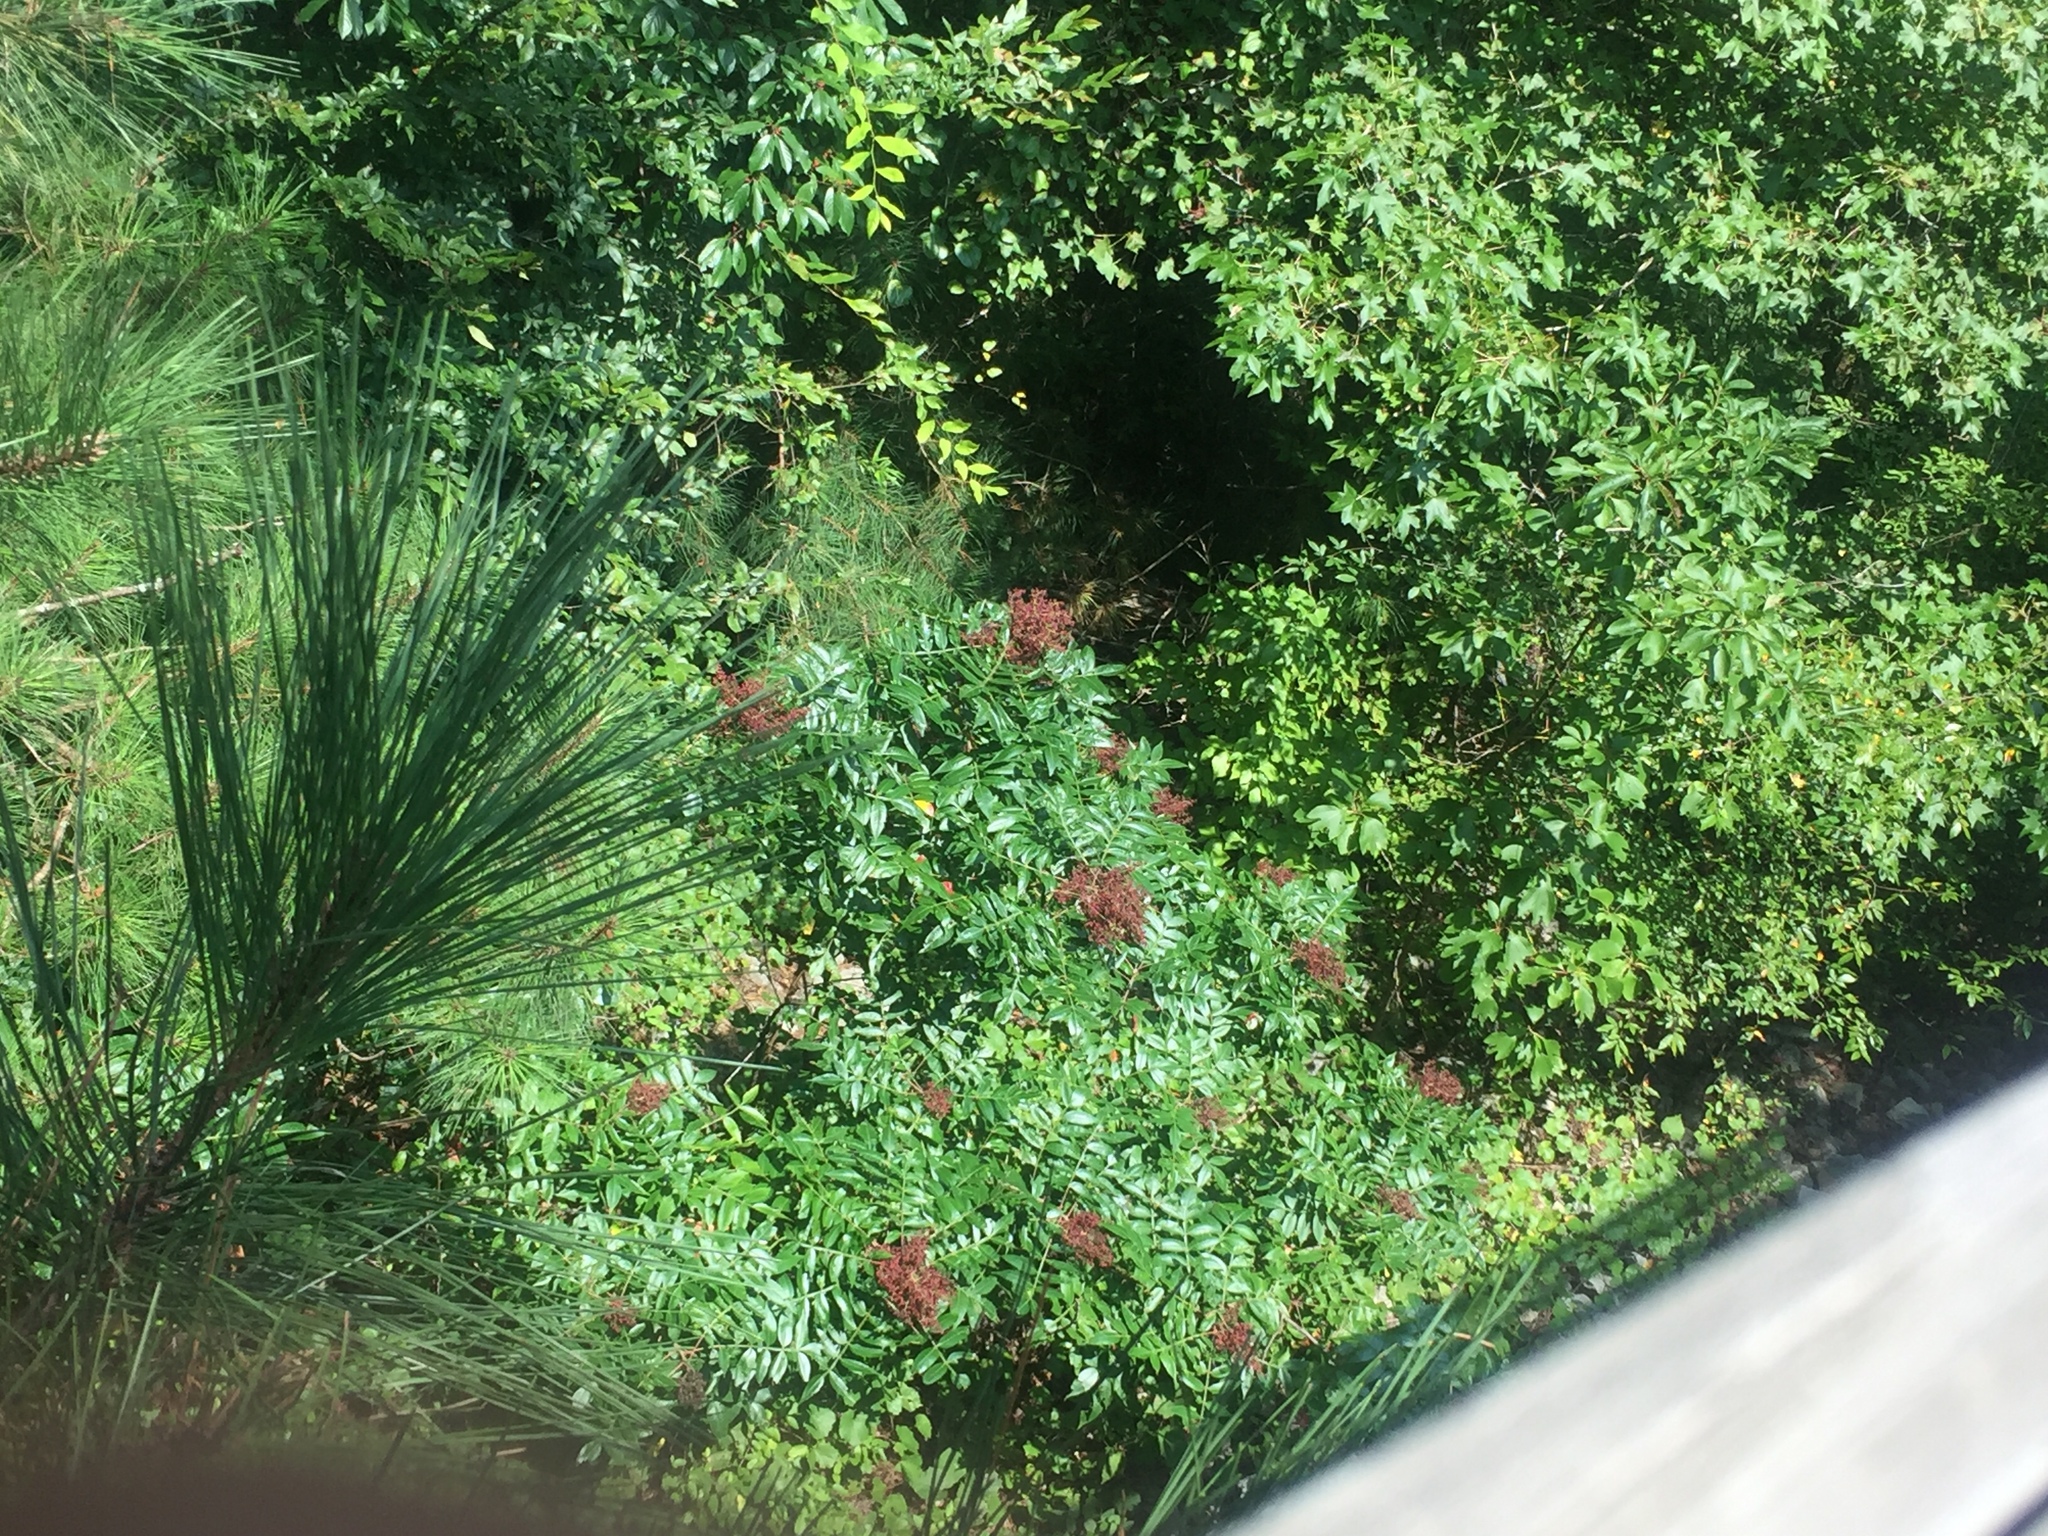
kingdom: Plantae
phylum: Tracheophyta
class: Magnoliopsida
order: Sapindales
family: Anacardiaceae
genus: Rhus
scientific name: Rhus copallina
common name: Shining sumac
